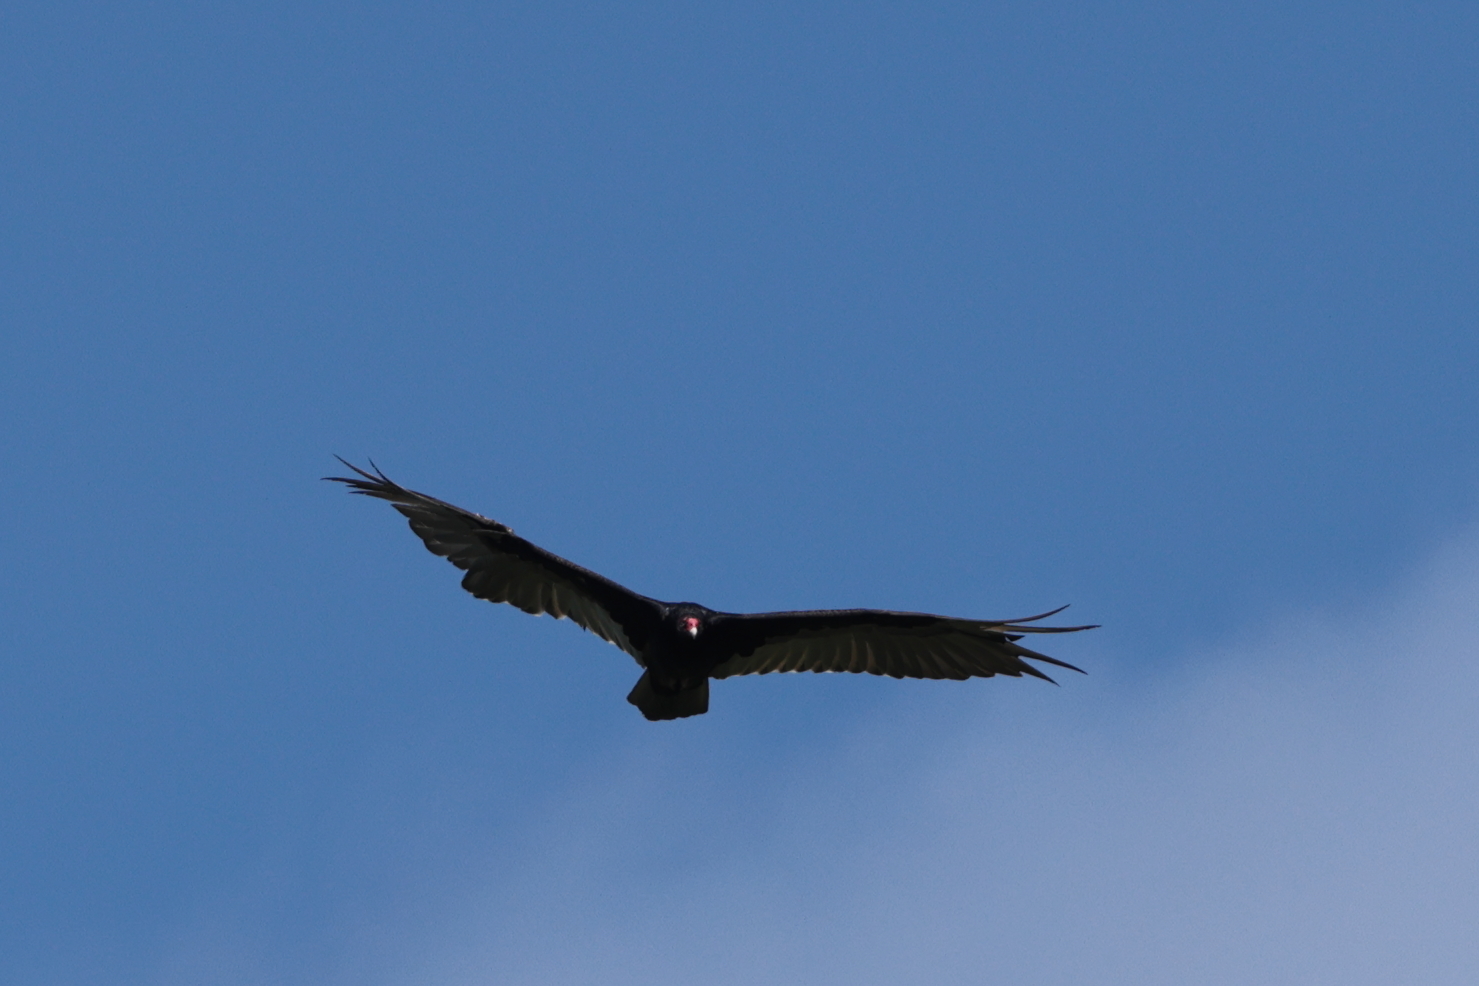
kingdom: Animalia
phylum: Chordata
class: Aves
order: Accipitriformes
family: Cathartidae
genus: Cathartes
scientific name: Cathartes aura
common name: Turkey vulture
